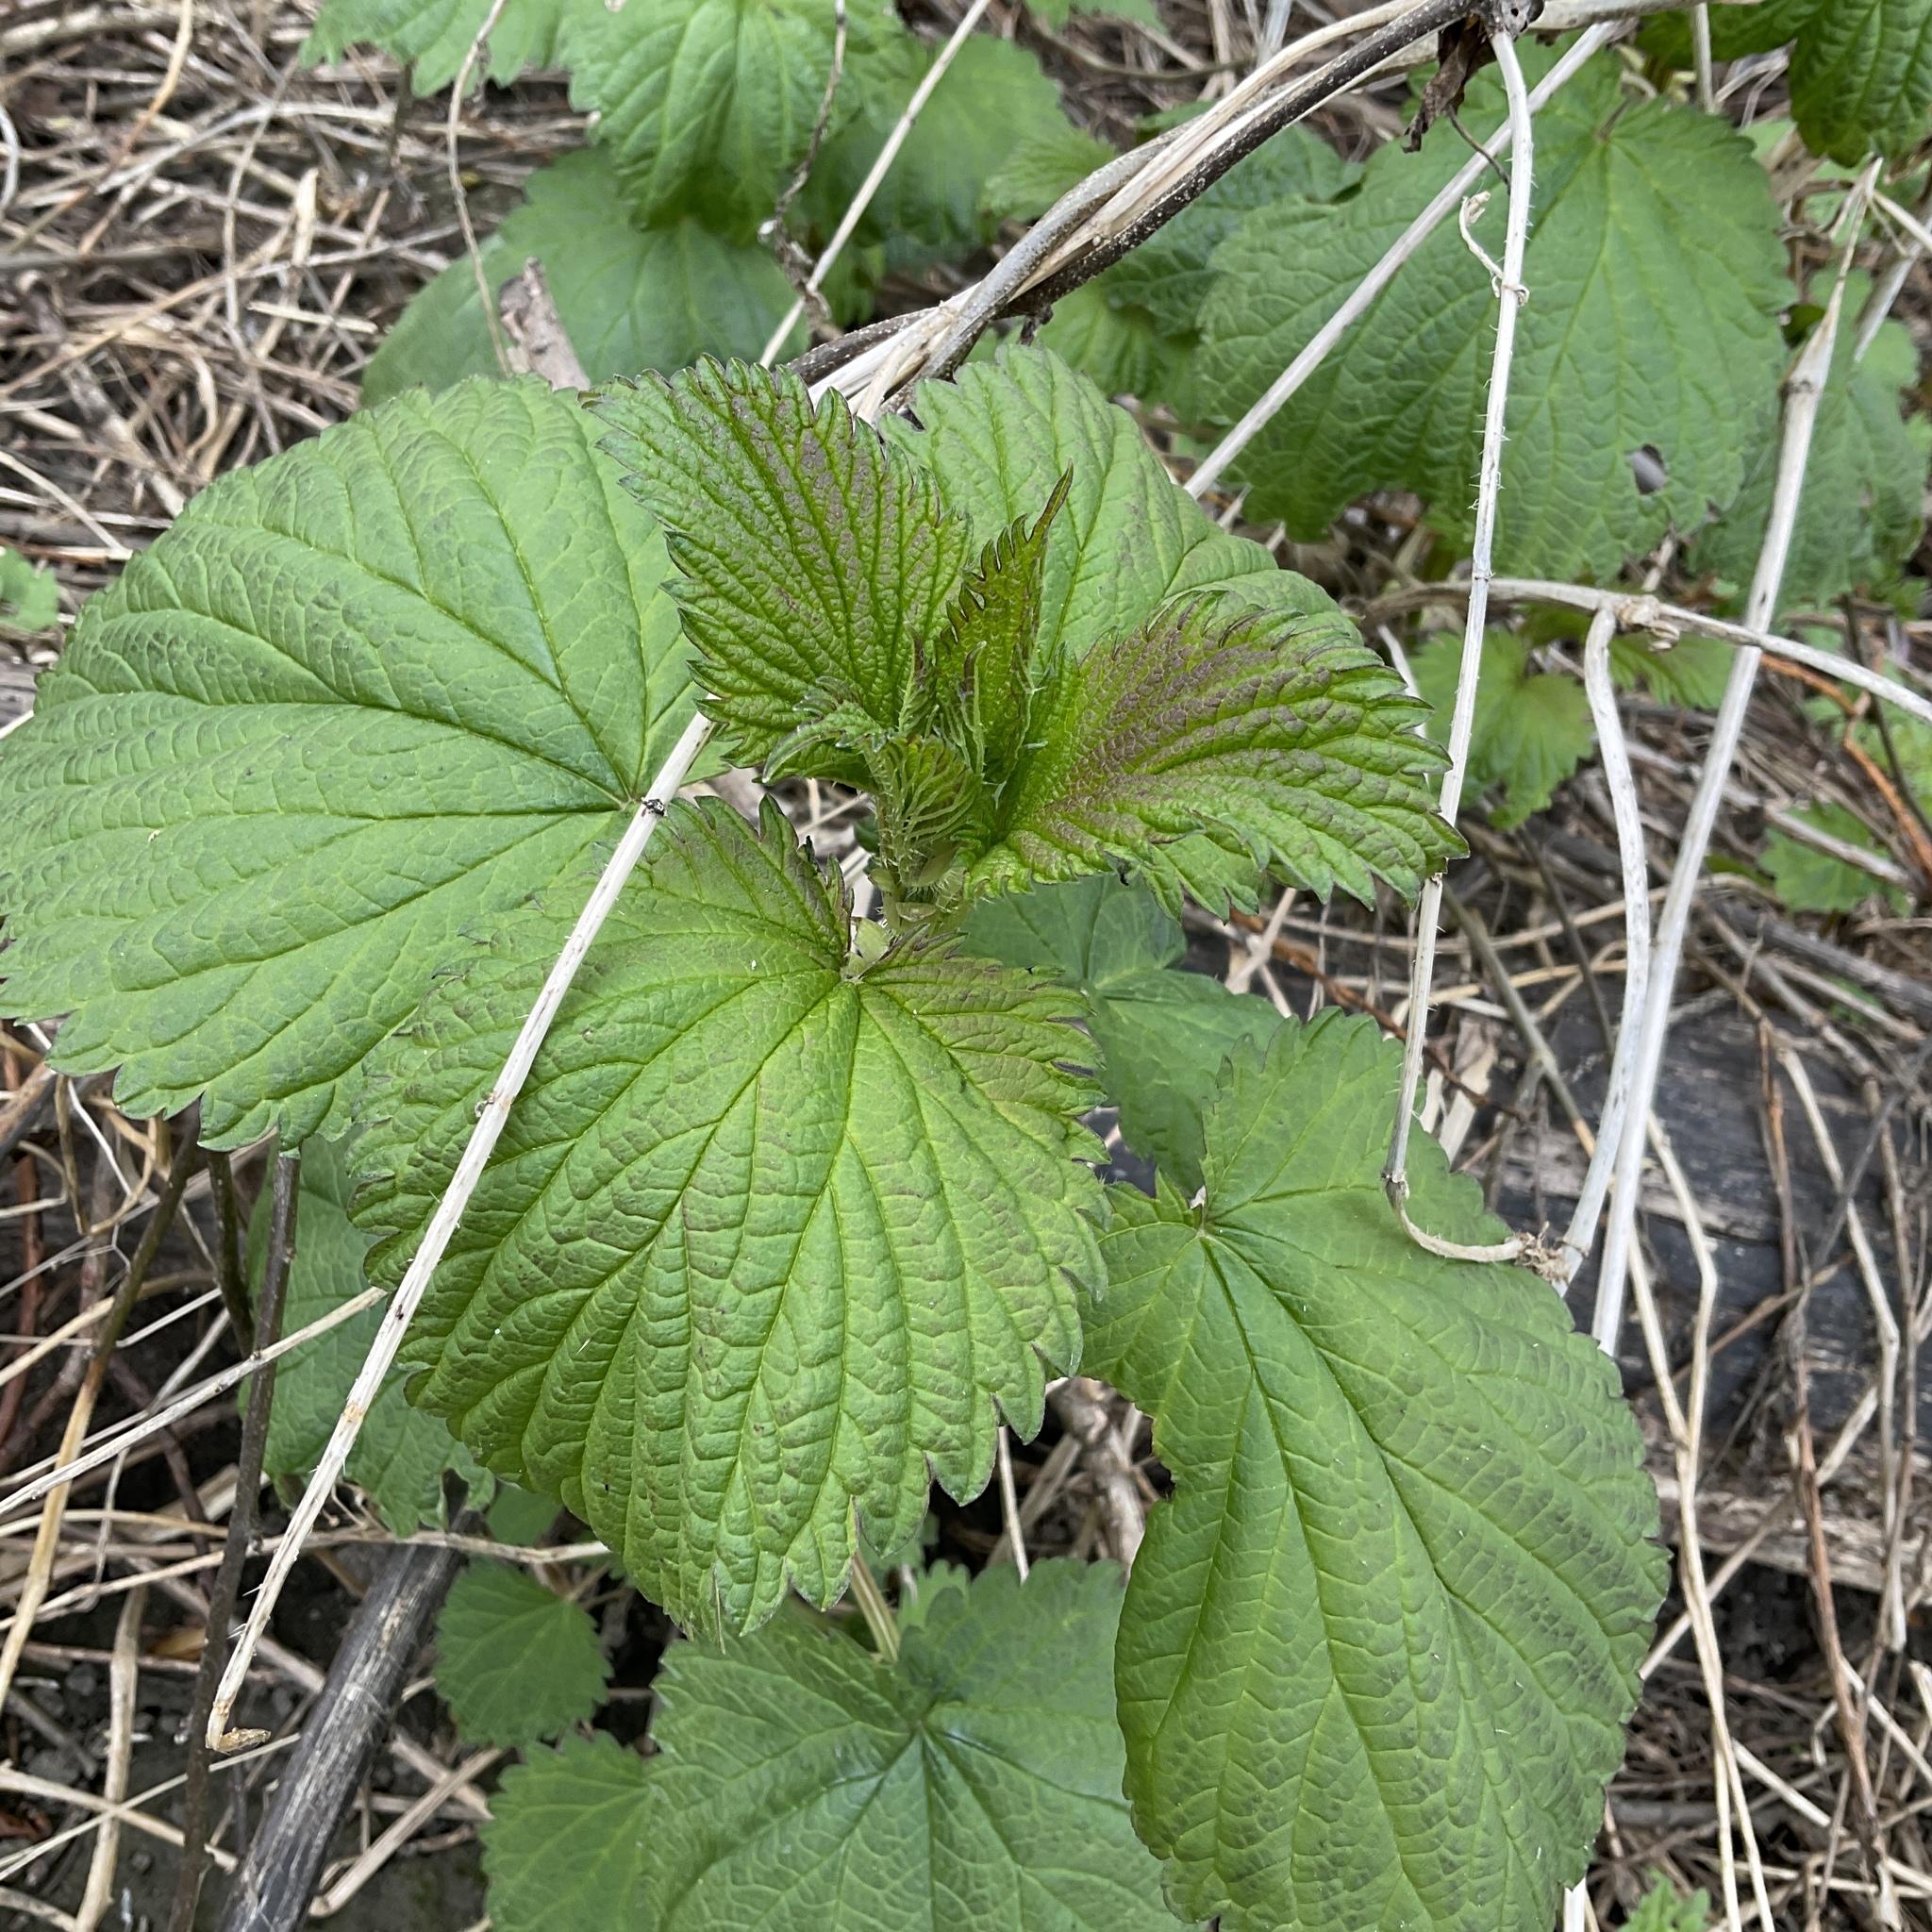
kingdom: Plantae
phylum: Tracheophyta
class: Magnoliopsida
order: Rosales
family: Urticaceae
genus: Urtica
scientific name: Urtica dioica
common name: Common nettle
